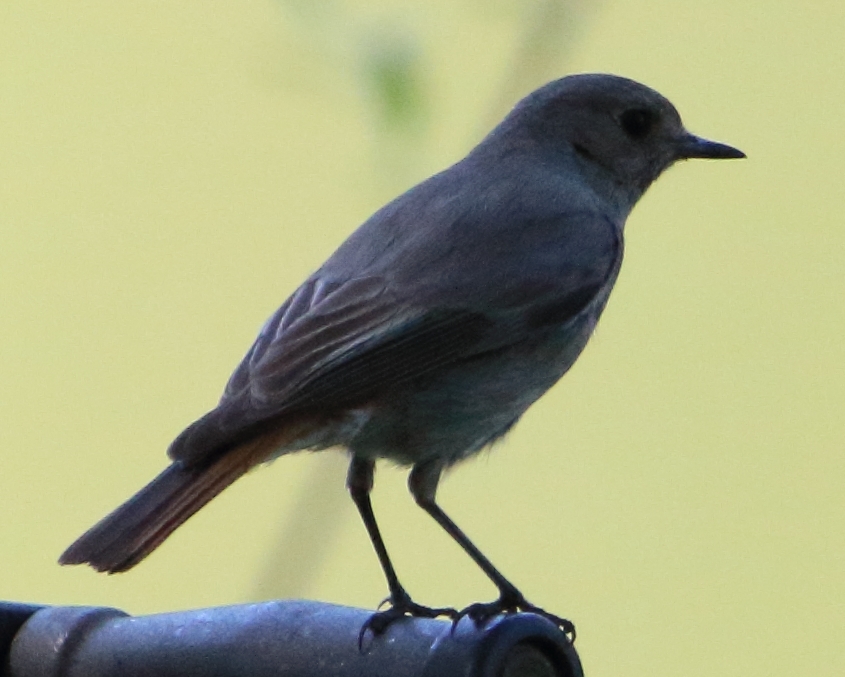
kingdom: Animalia
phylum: Chordata
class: Aves
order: Passeriformes
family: Muscicapidae
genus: Phoenicurus
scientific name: Phoenicurus ochruros
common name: Black redstart
